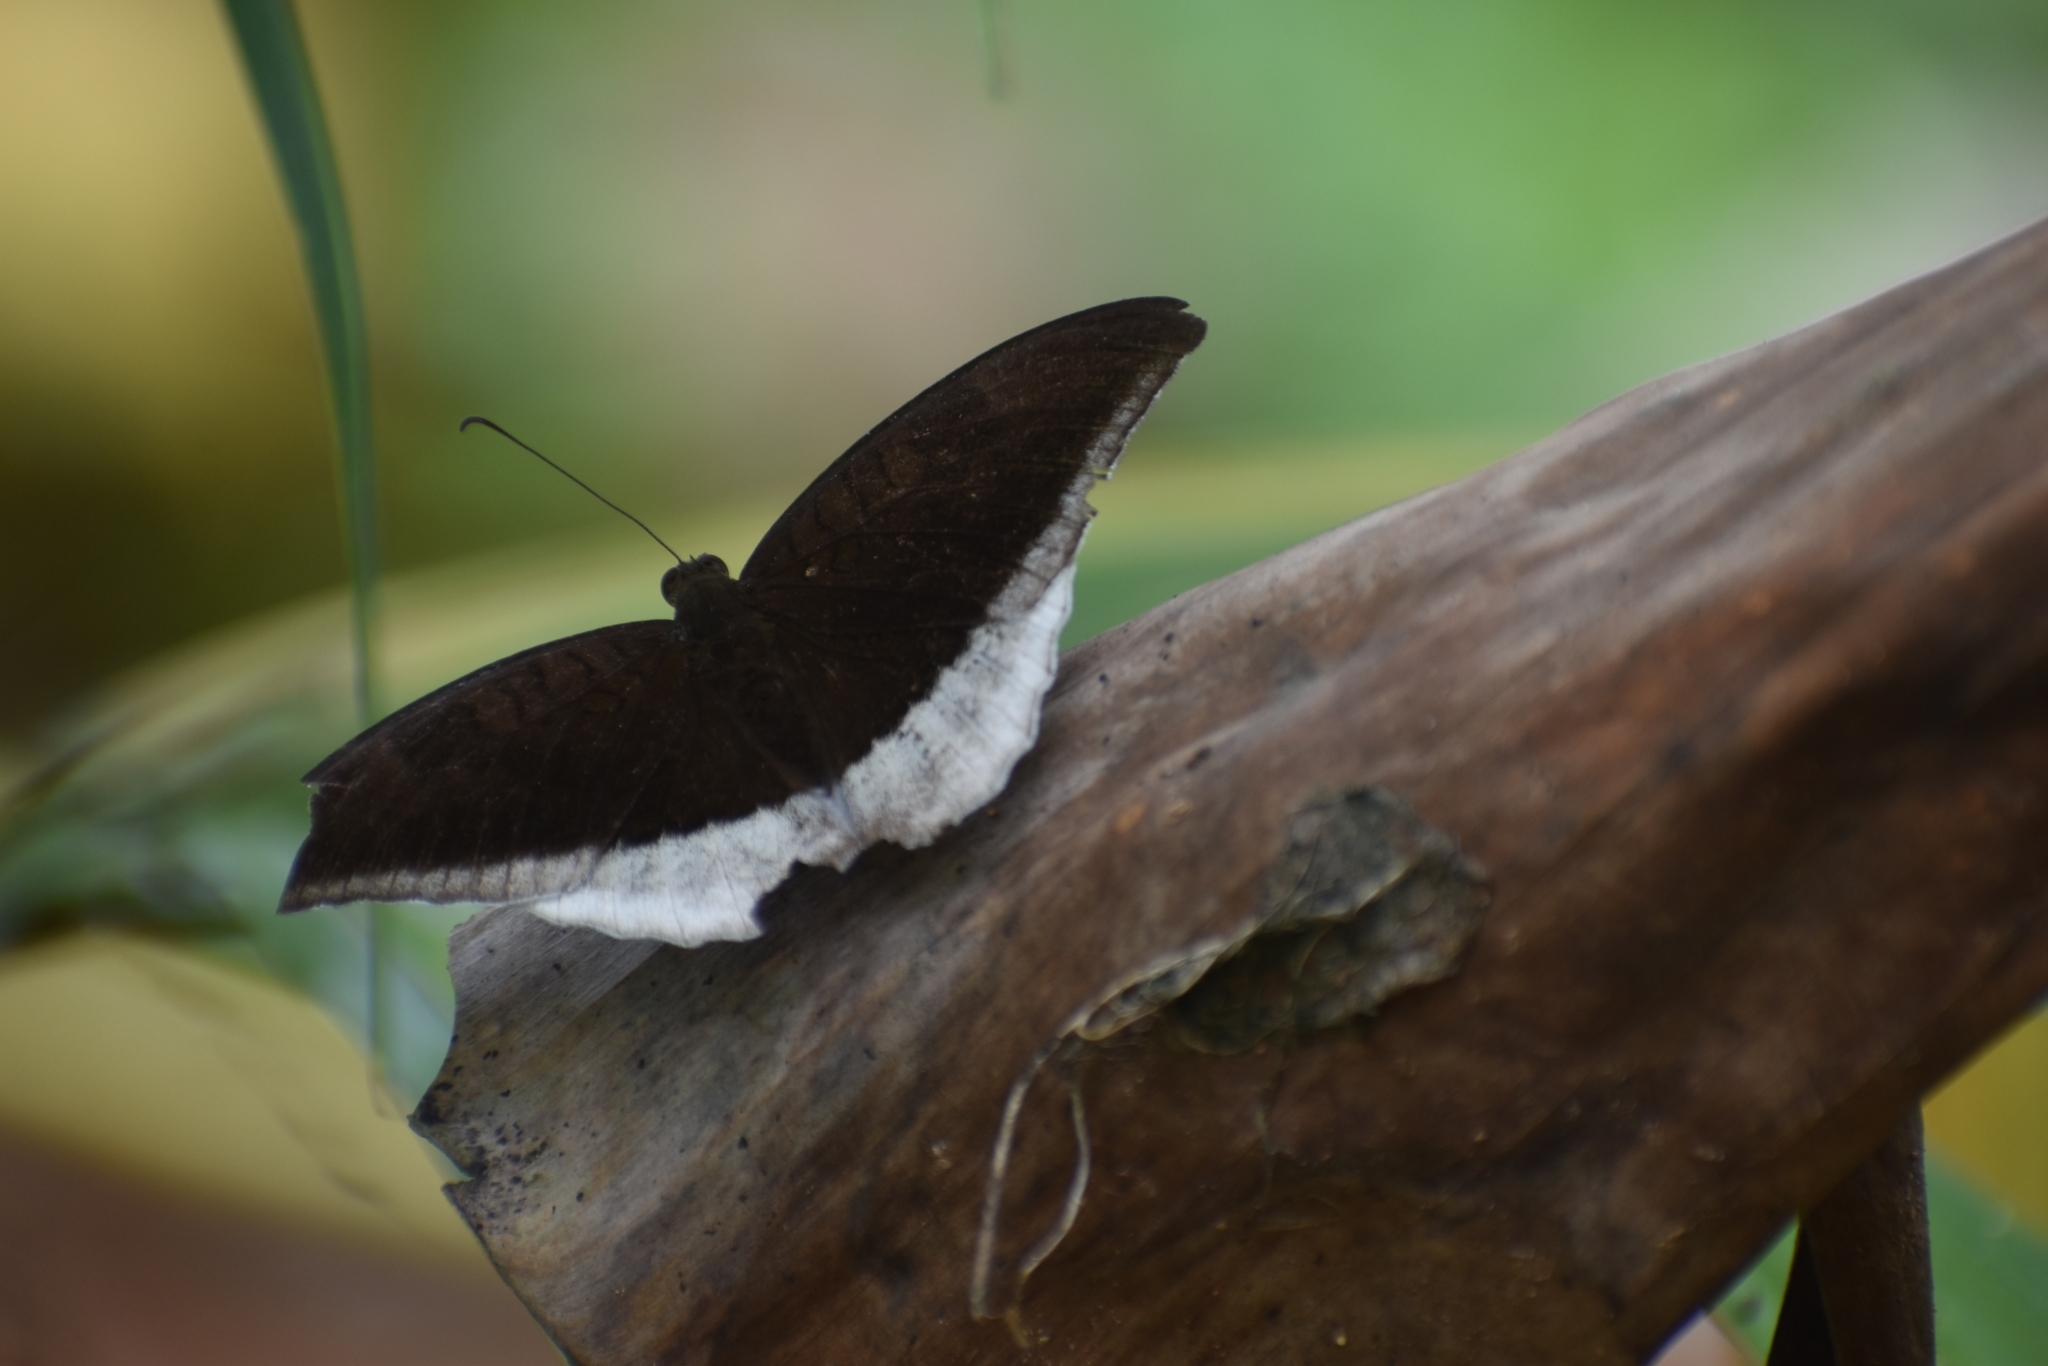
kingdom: Animalia
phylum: Arthropoda
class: Insecta
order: Lepidoptera
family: Nymphalidae
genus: Tanaecia
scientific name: Tanaecia lepidea
